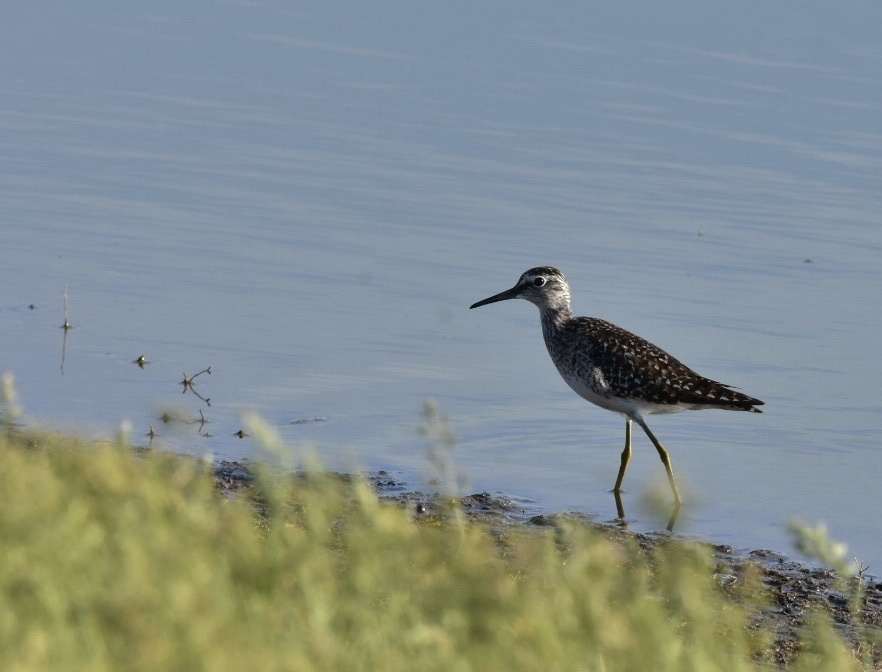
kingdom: Animalia
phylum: Chordata
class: Aves
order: Charadriiformes
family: Scolopacidae
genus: Tringa
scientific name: Tringa glareola
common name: Wood sandpiper
